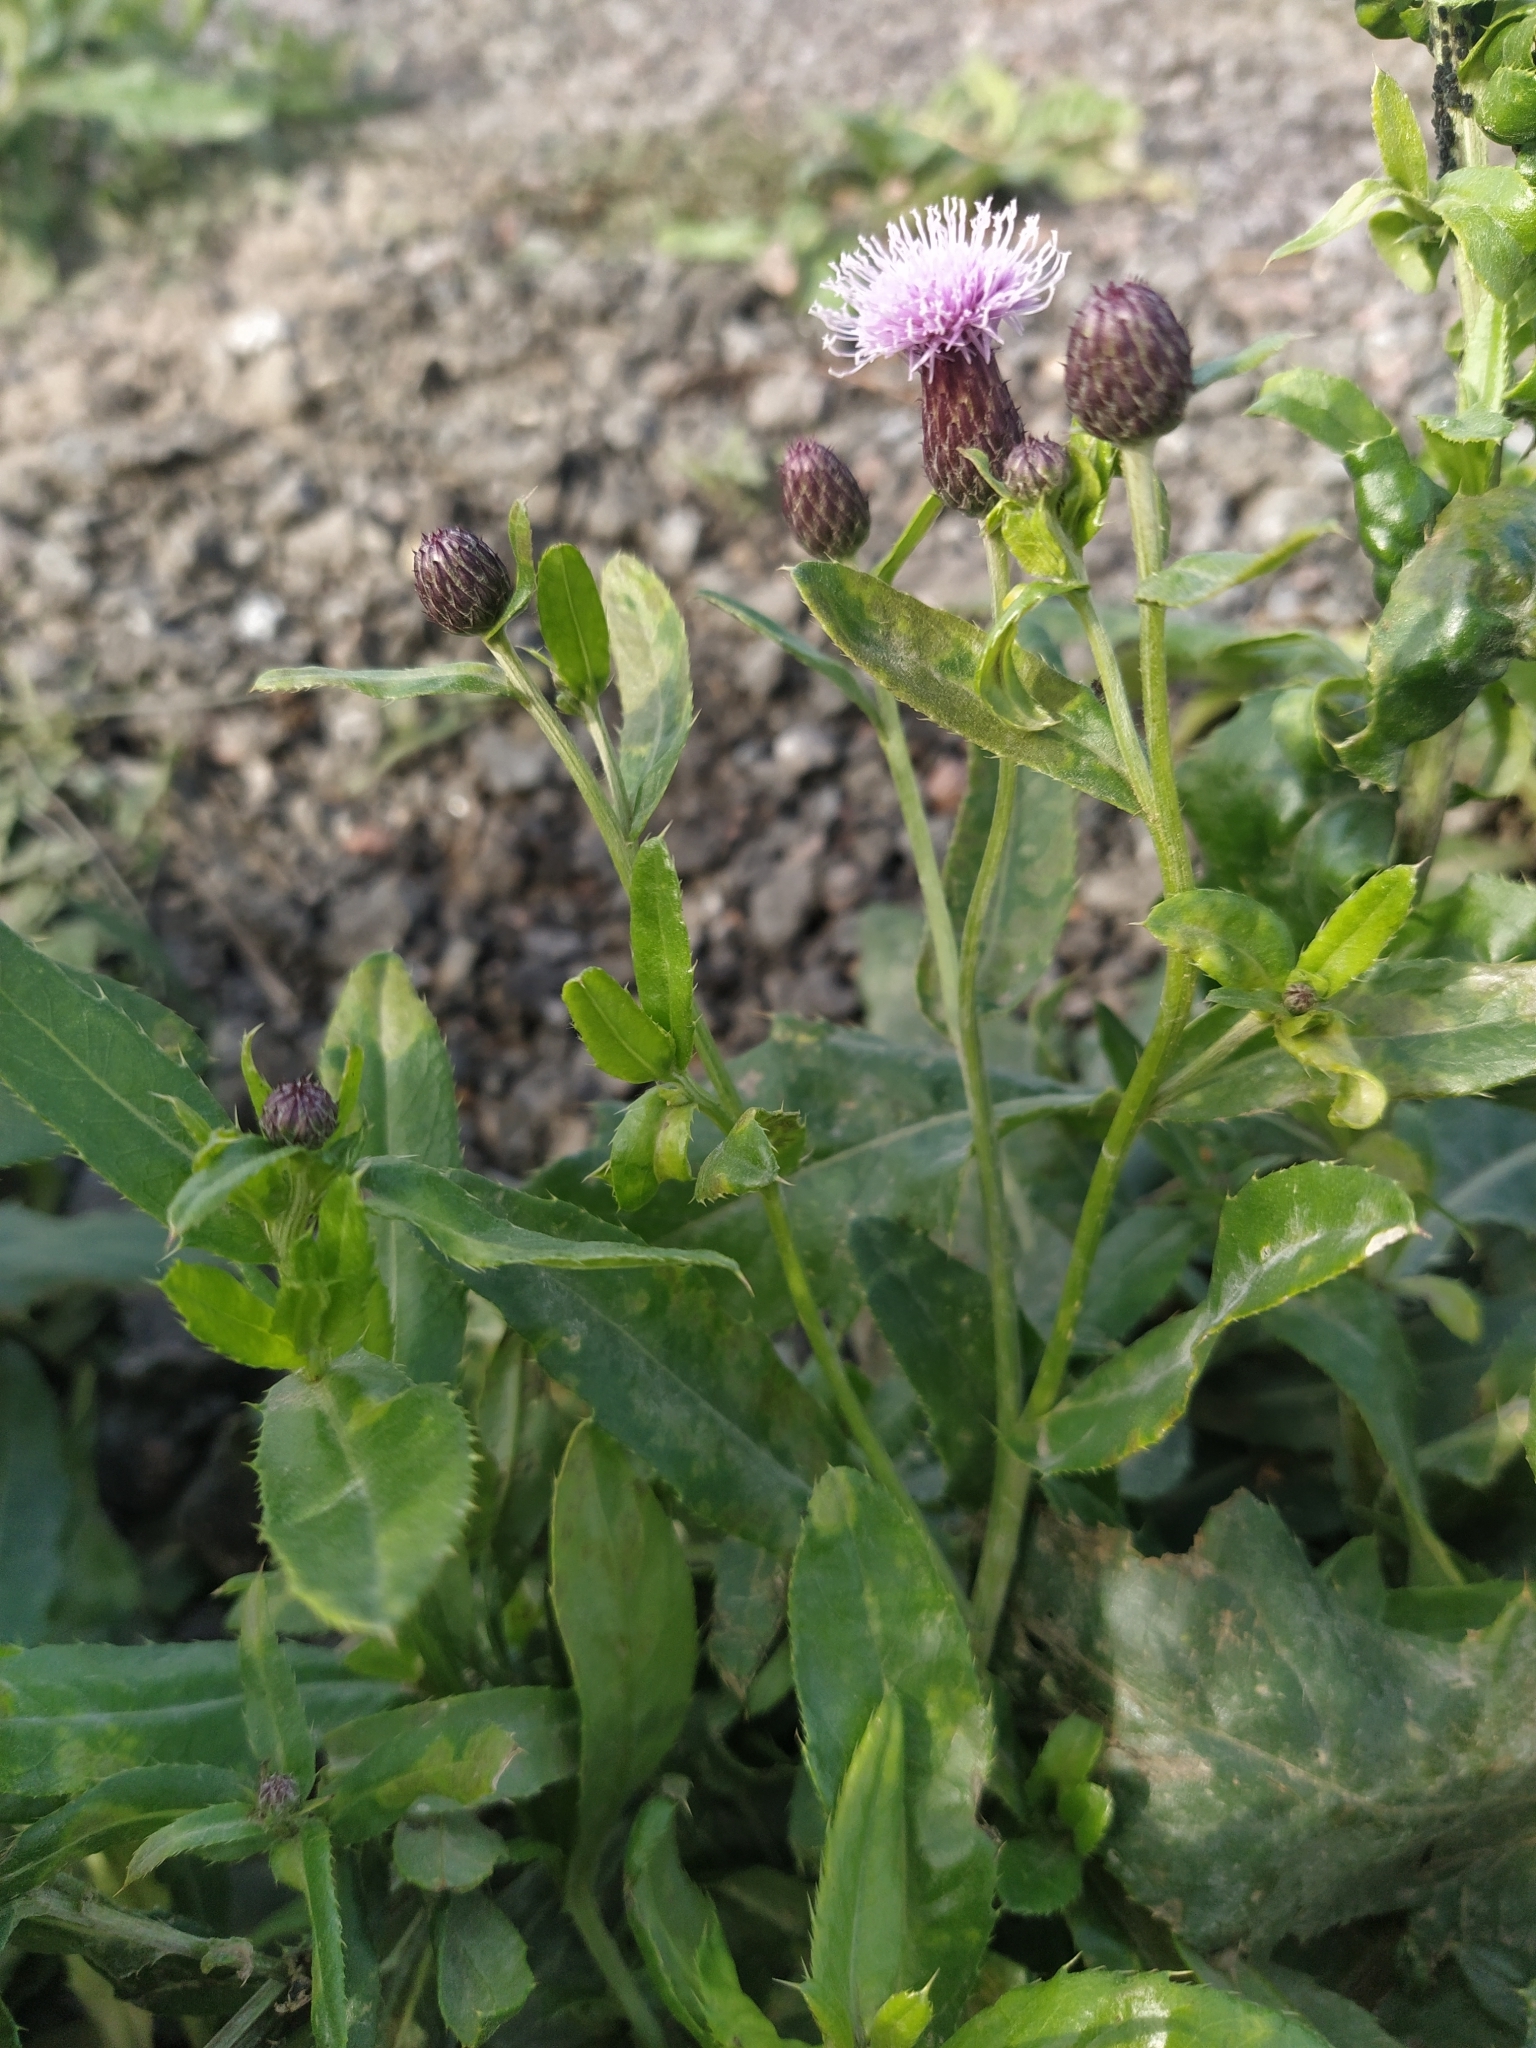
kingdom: Plantae
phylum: Tracheophyta
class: Magnoliopsida
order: Asterales
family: Asteraceae
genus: Cirsium
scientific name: Cirsium arvense
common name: Creeping thistle
